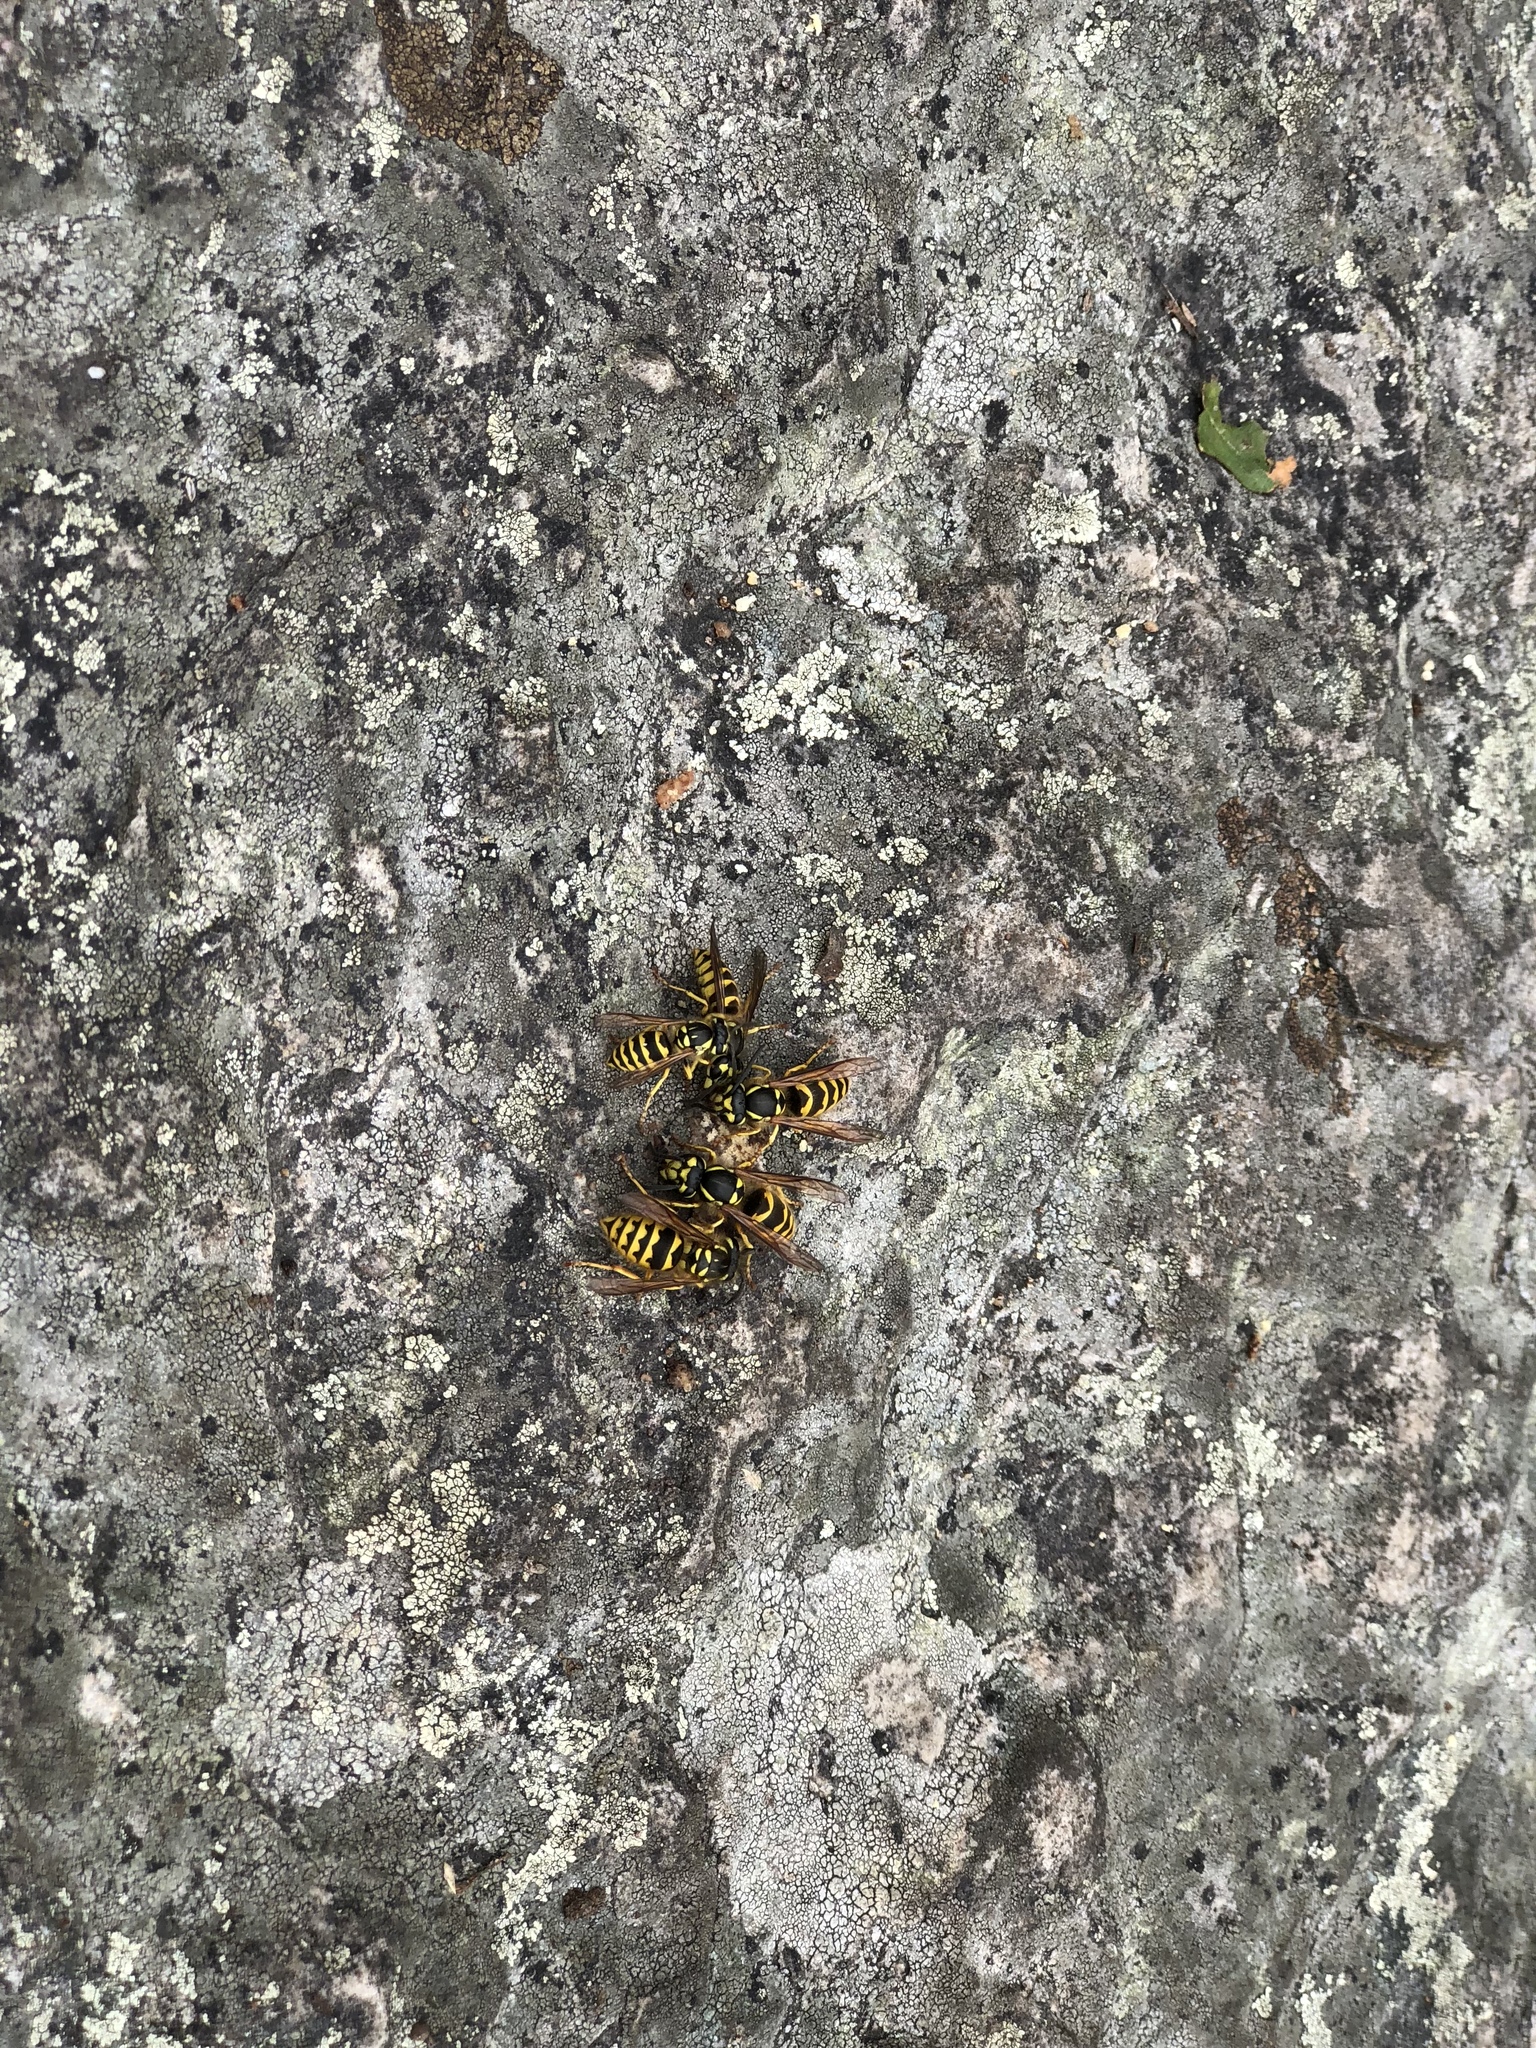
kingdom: Animalia
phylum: Arthropoda
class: Insecta
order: Hymenoptera
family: Vespidae
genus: Vespula
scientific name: Vespula flavopilosa
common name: Downy yellowjacket
